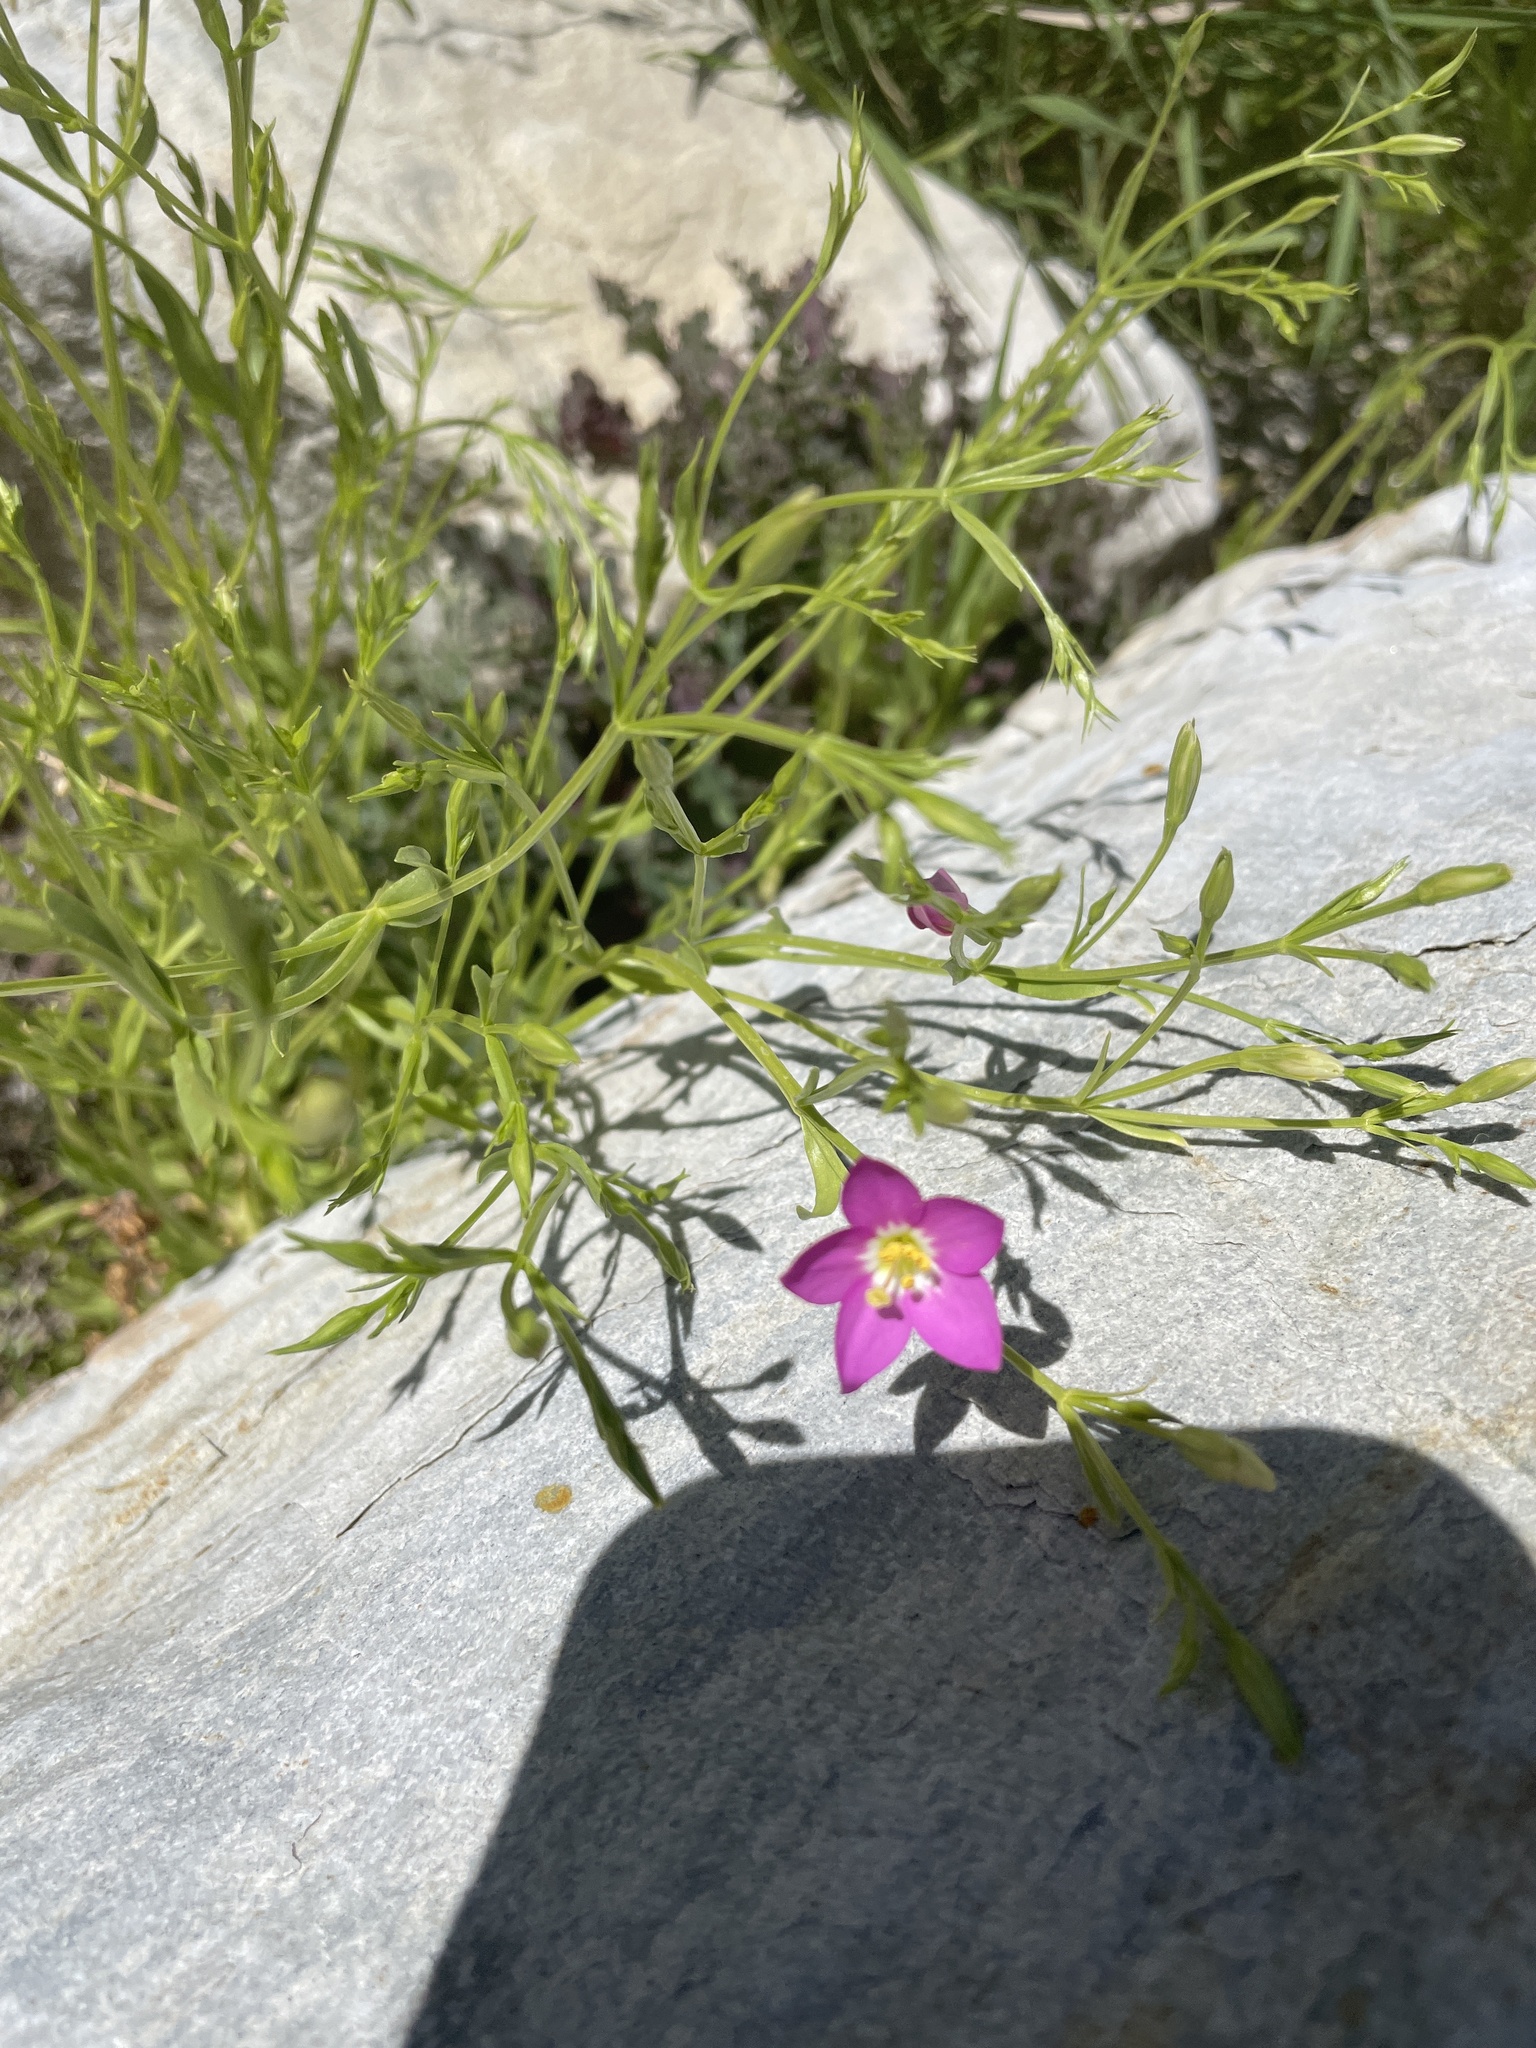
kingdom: Plantae
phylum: Tracheophyta
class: Magnoliopsida
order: Gentianales
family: Gentianaceae
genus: Zeltnera
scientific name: Zeltnera arizonica
